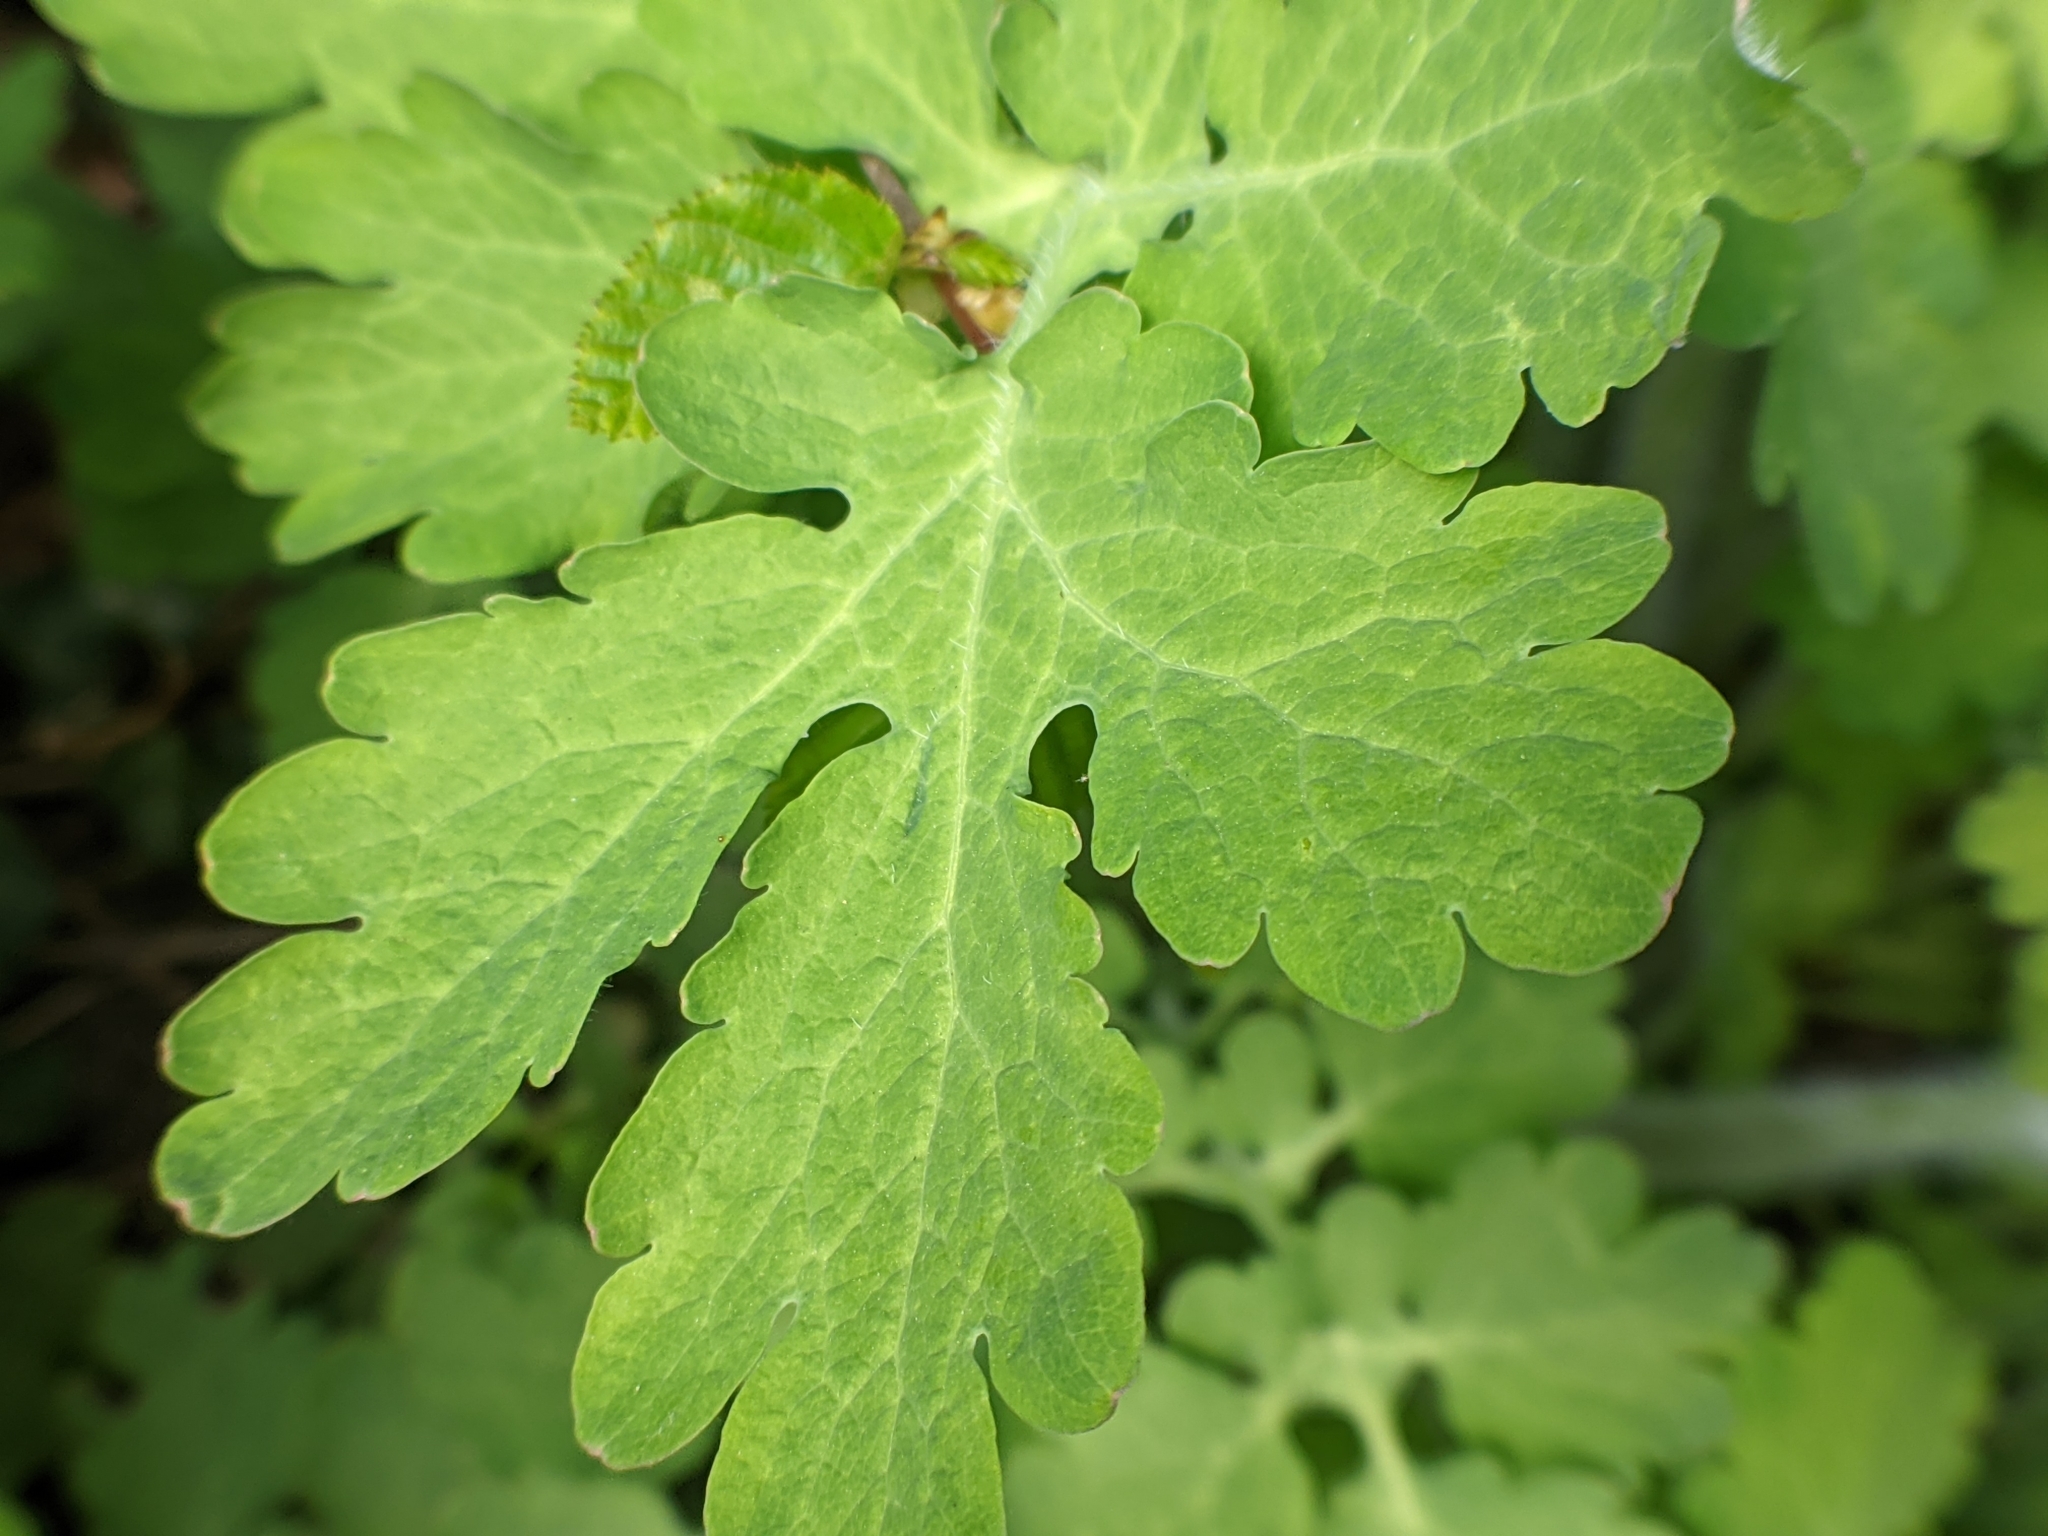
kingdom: Plantae
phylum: Tracheophyta
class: Magnoliopsida
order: Ranunculales
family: Papaveraceae
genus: Chelidonium
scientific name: Chelidonium majus
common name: Greater celandine
